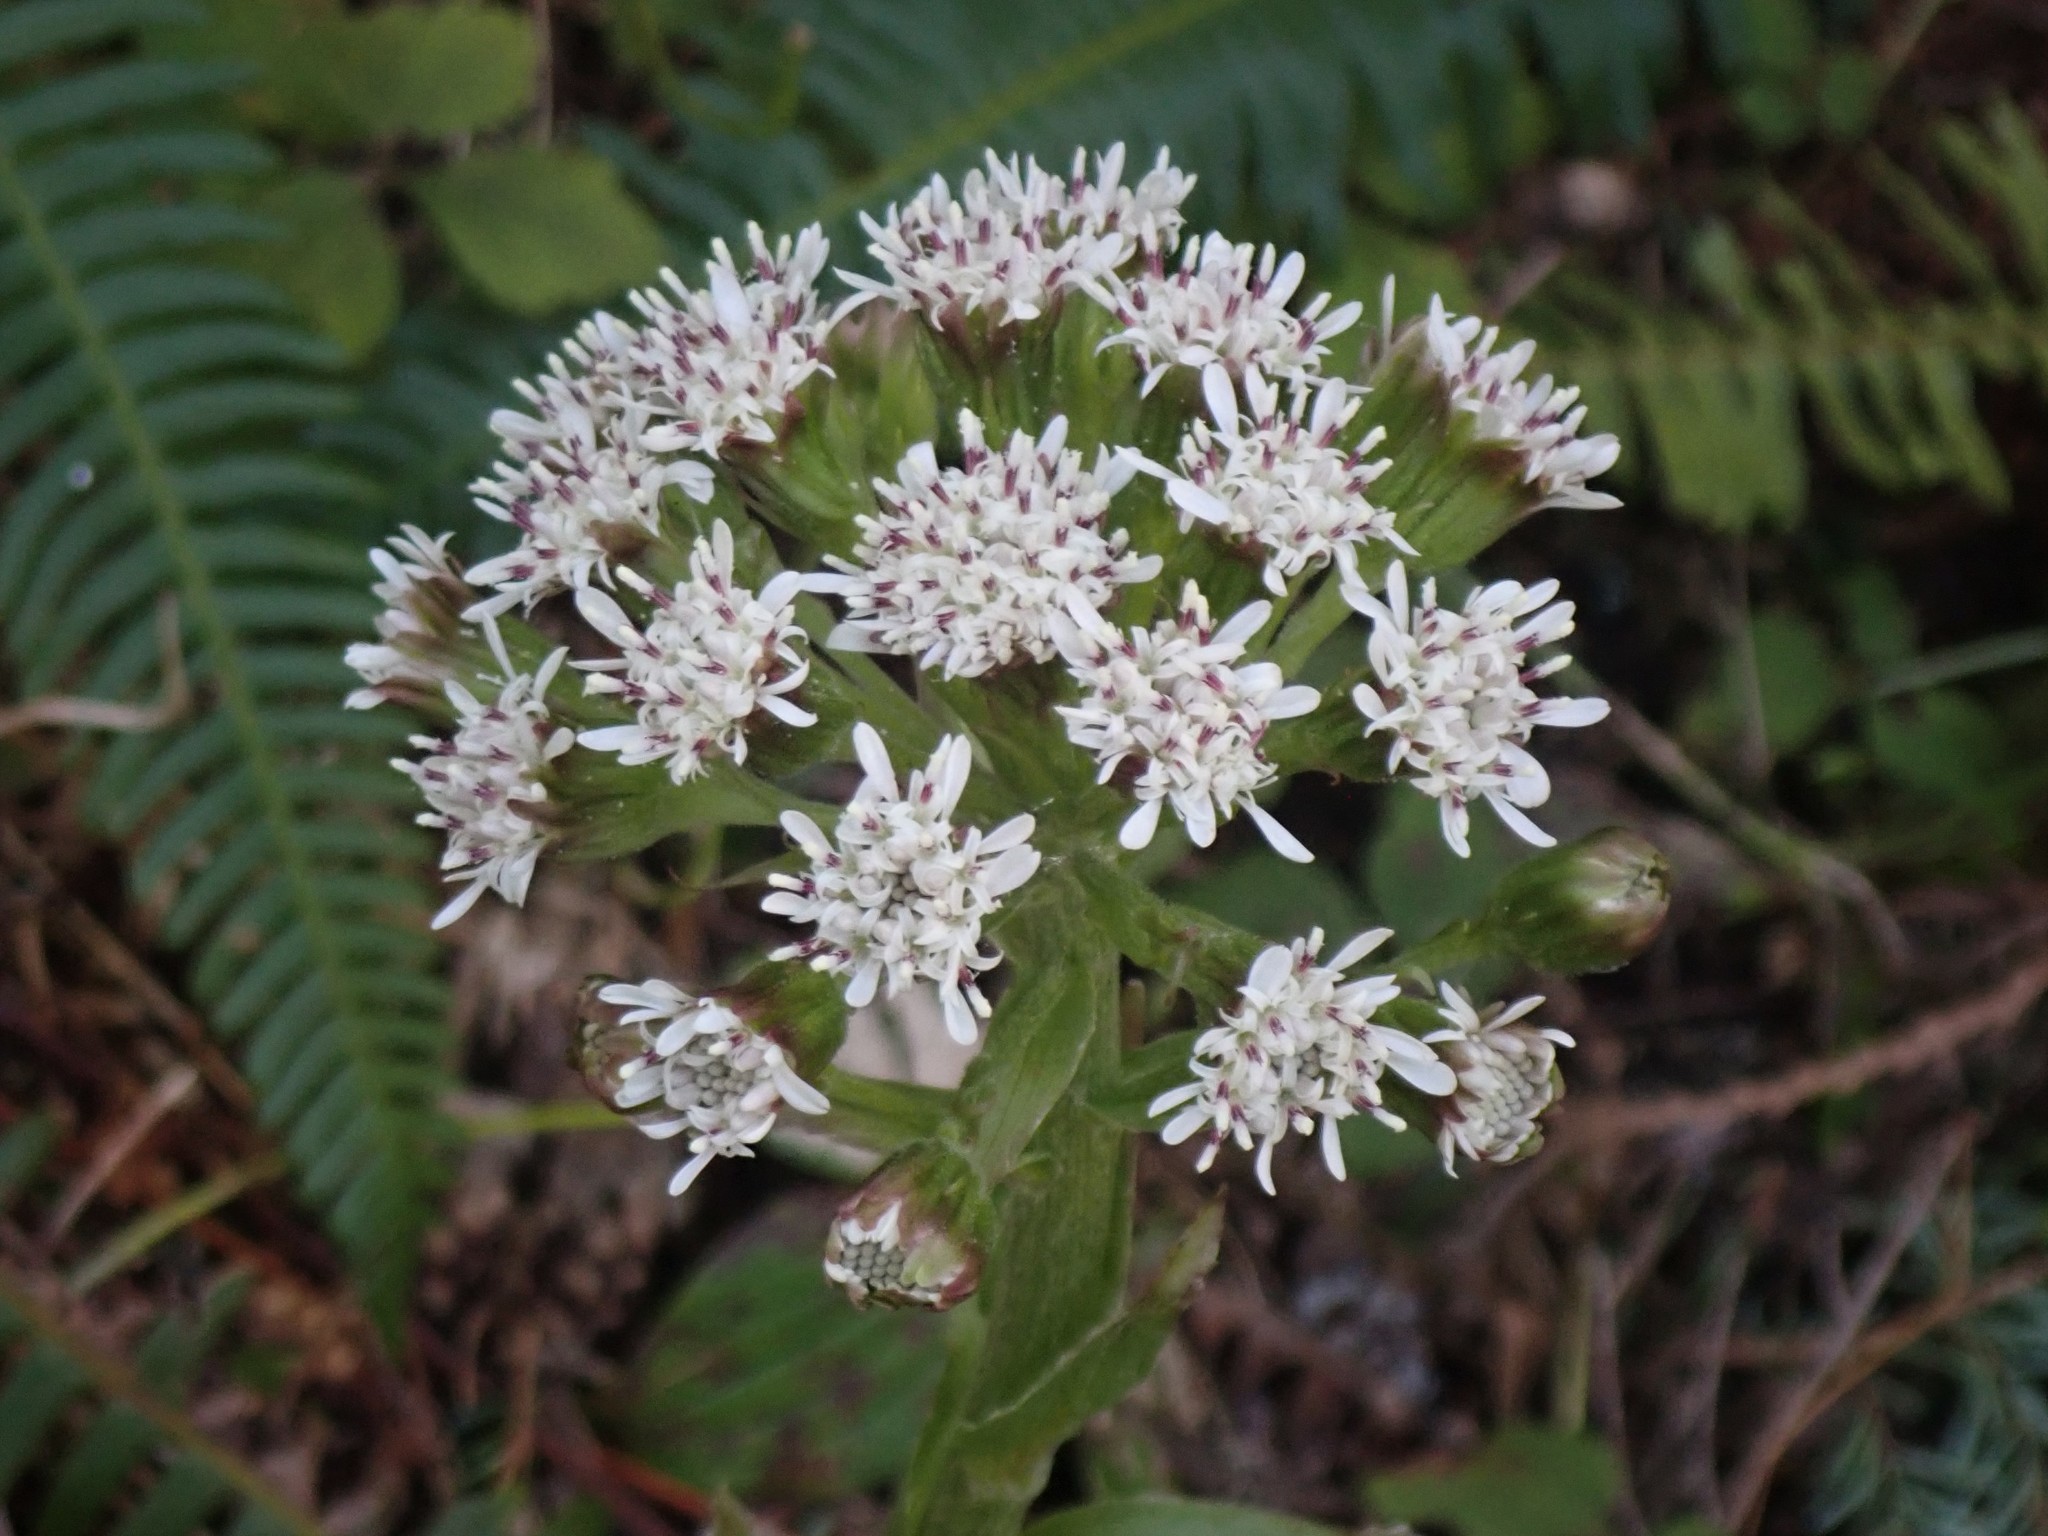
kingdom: Plantae
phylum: Tracheophyta
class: Magnoliopsida
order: Asterales
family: Asteraceae
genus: Petasites
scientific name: Petasites frigidus
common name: Arctic butterbur
